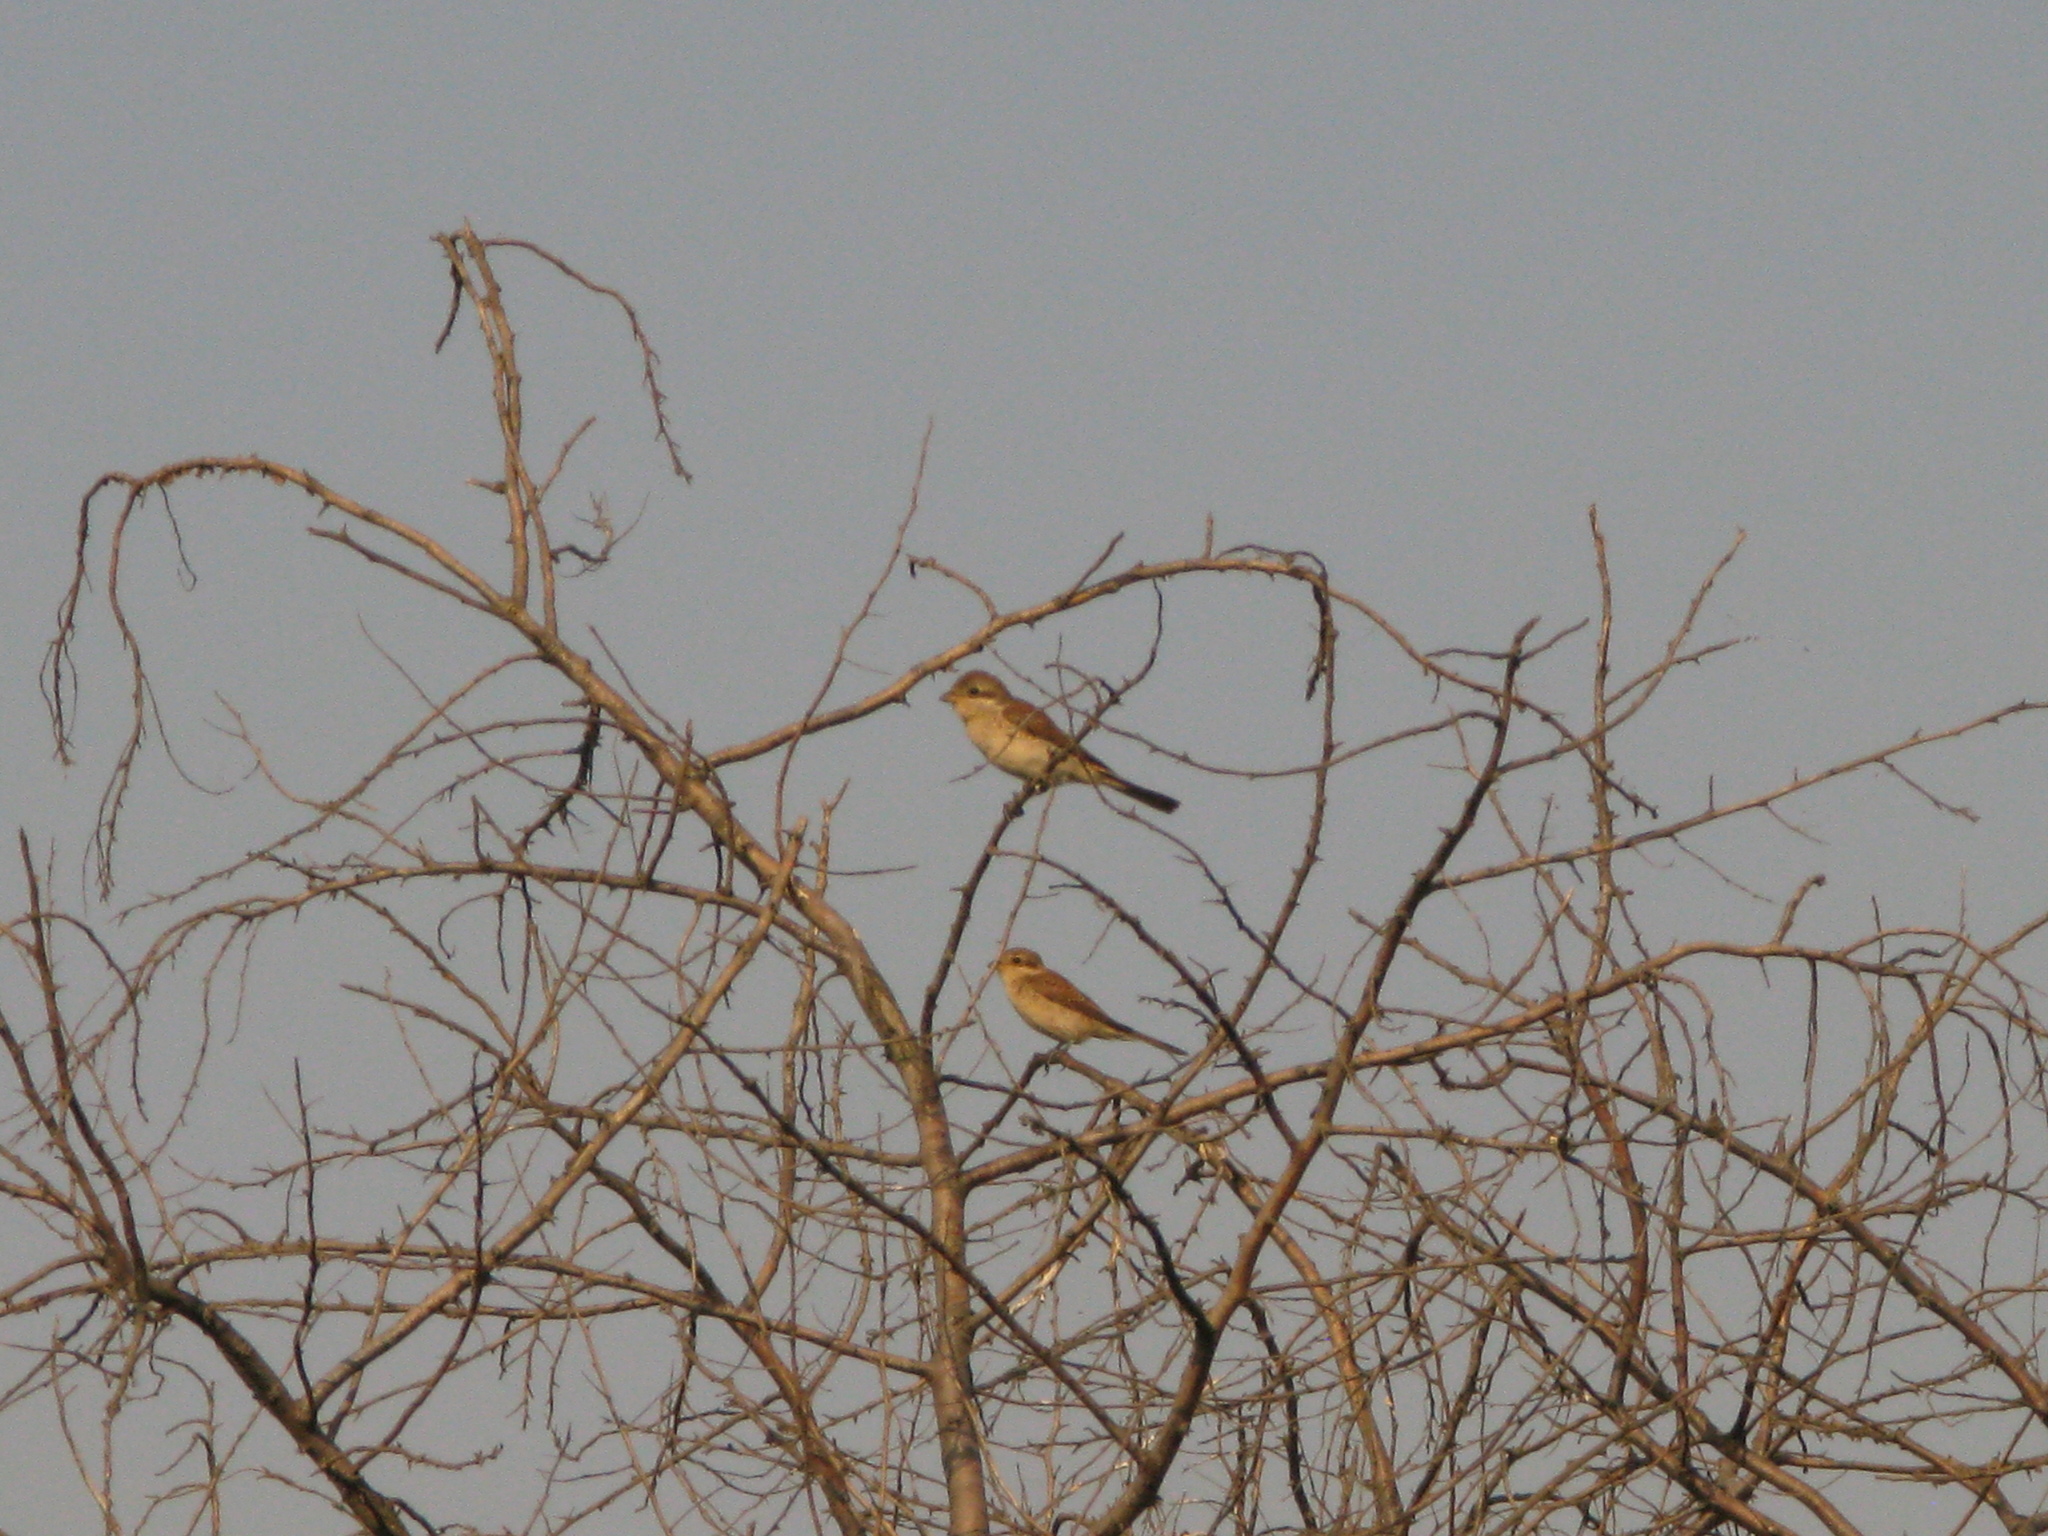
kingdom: Animalia
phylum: Chordata
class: Aves
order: Passeriformes
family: Laniidae
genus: Lanius
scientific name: Lanius collurio
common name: Red-backed shrike
